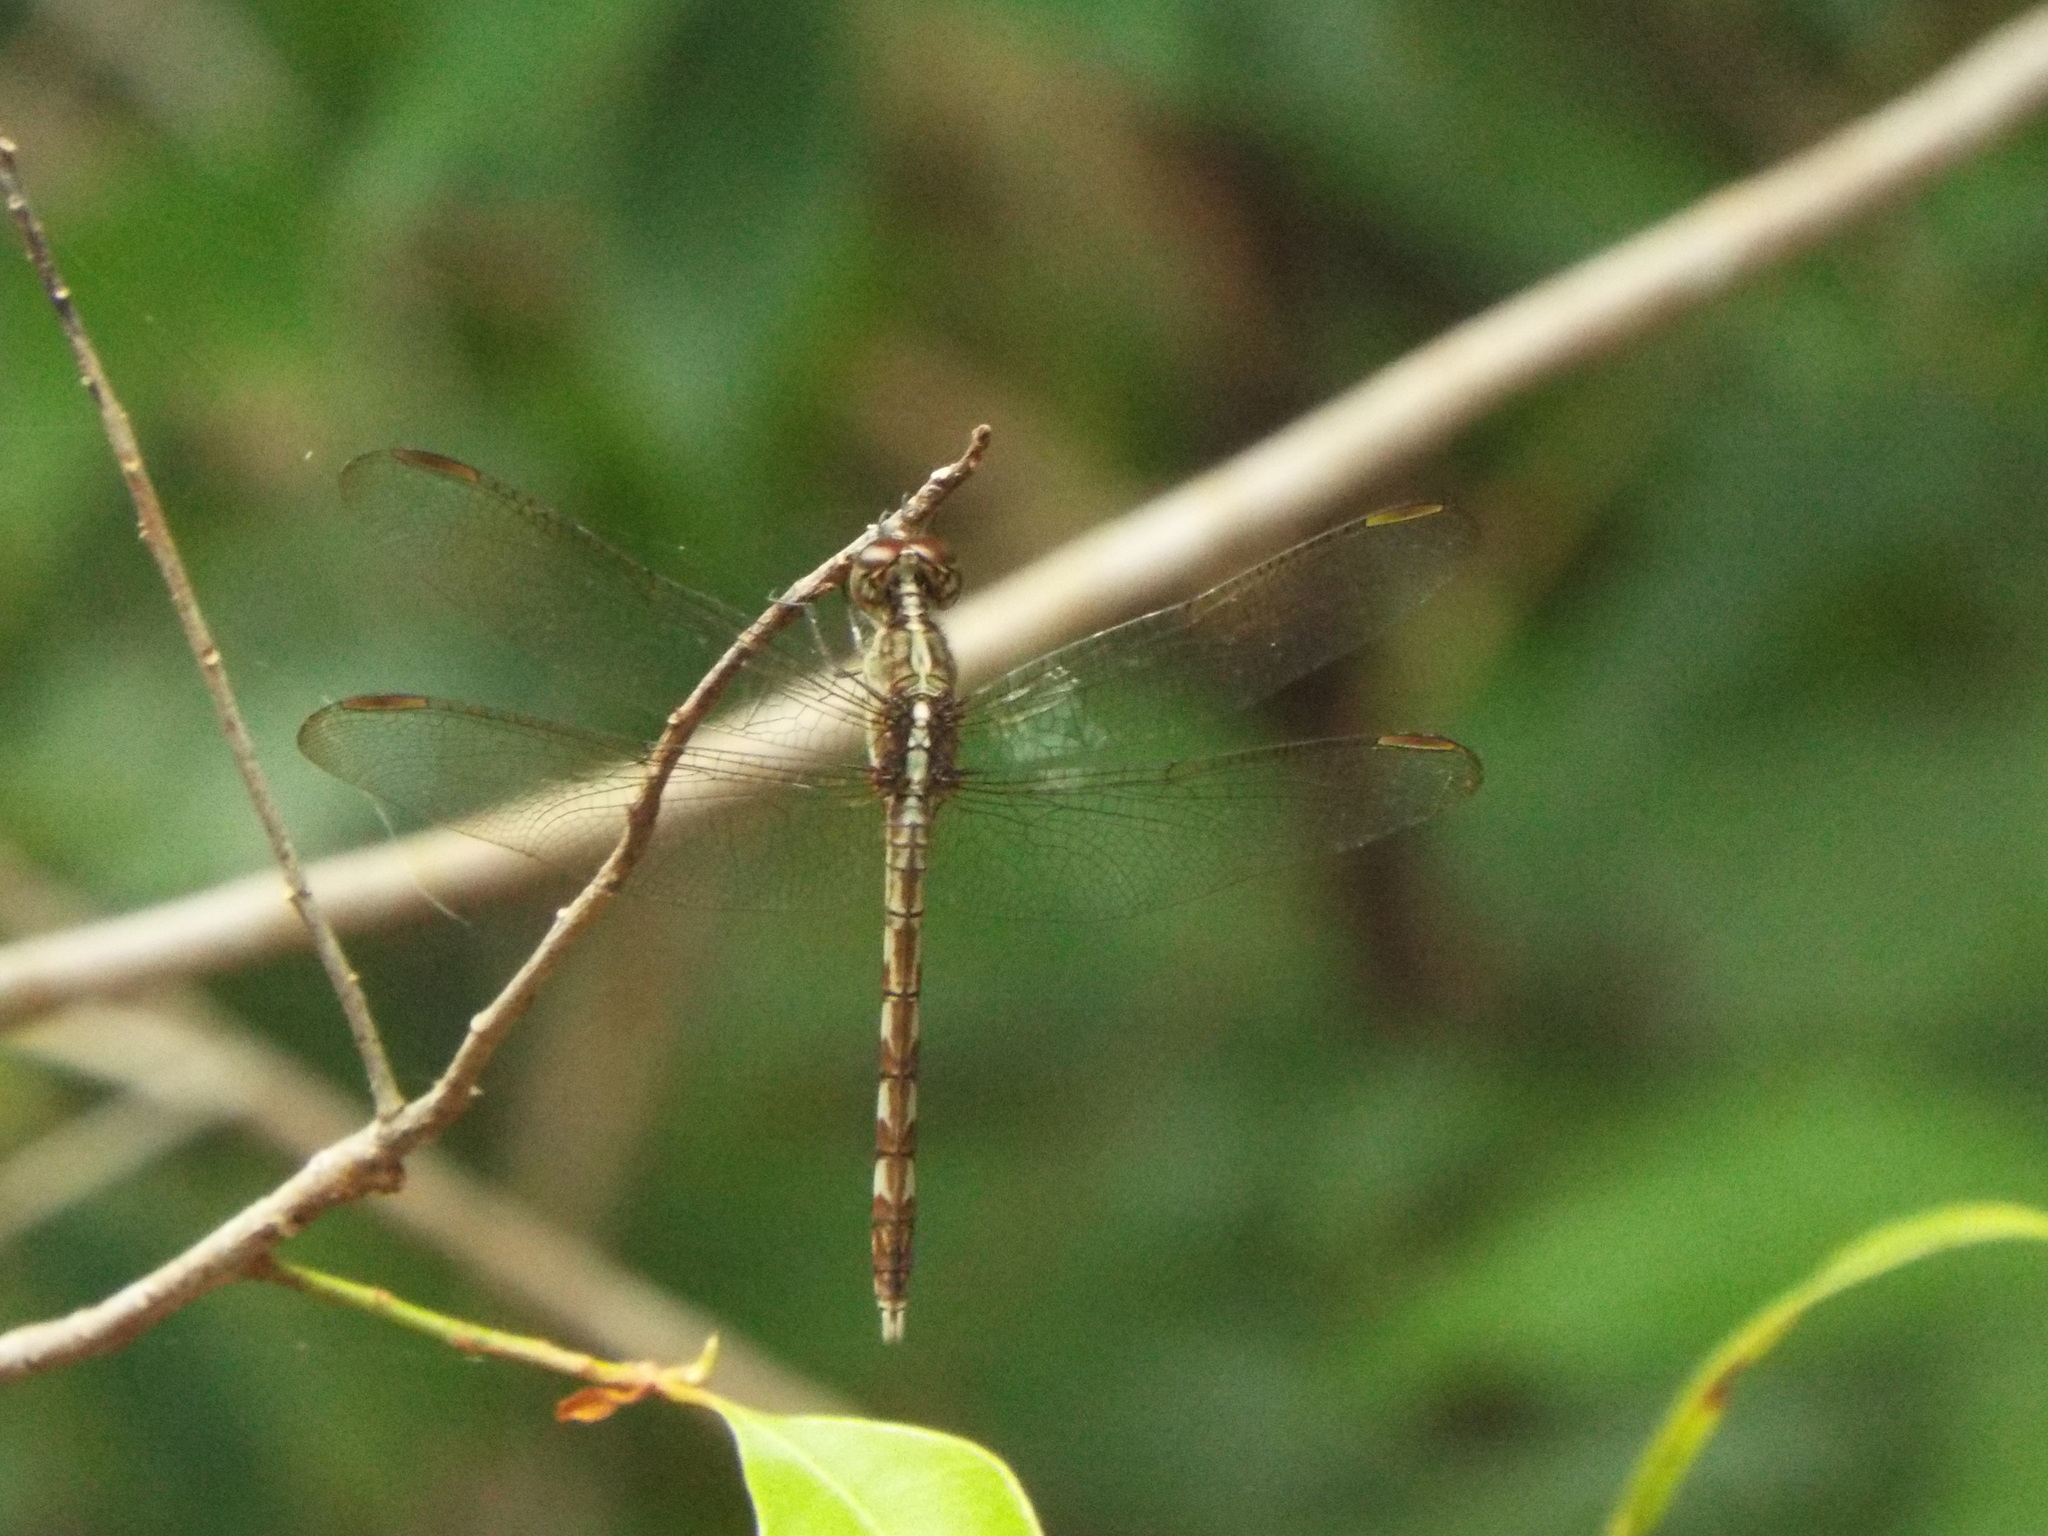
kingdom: Animalia
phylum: Arthropoda
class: Insecta
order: Odonata
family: Libellulidae
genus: Erythrodiplax
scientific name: Erythrodiplax umbrata
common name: Band-winged dragonlet
